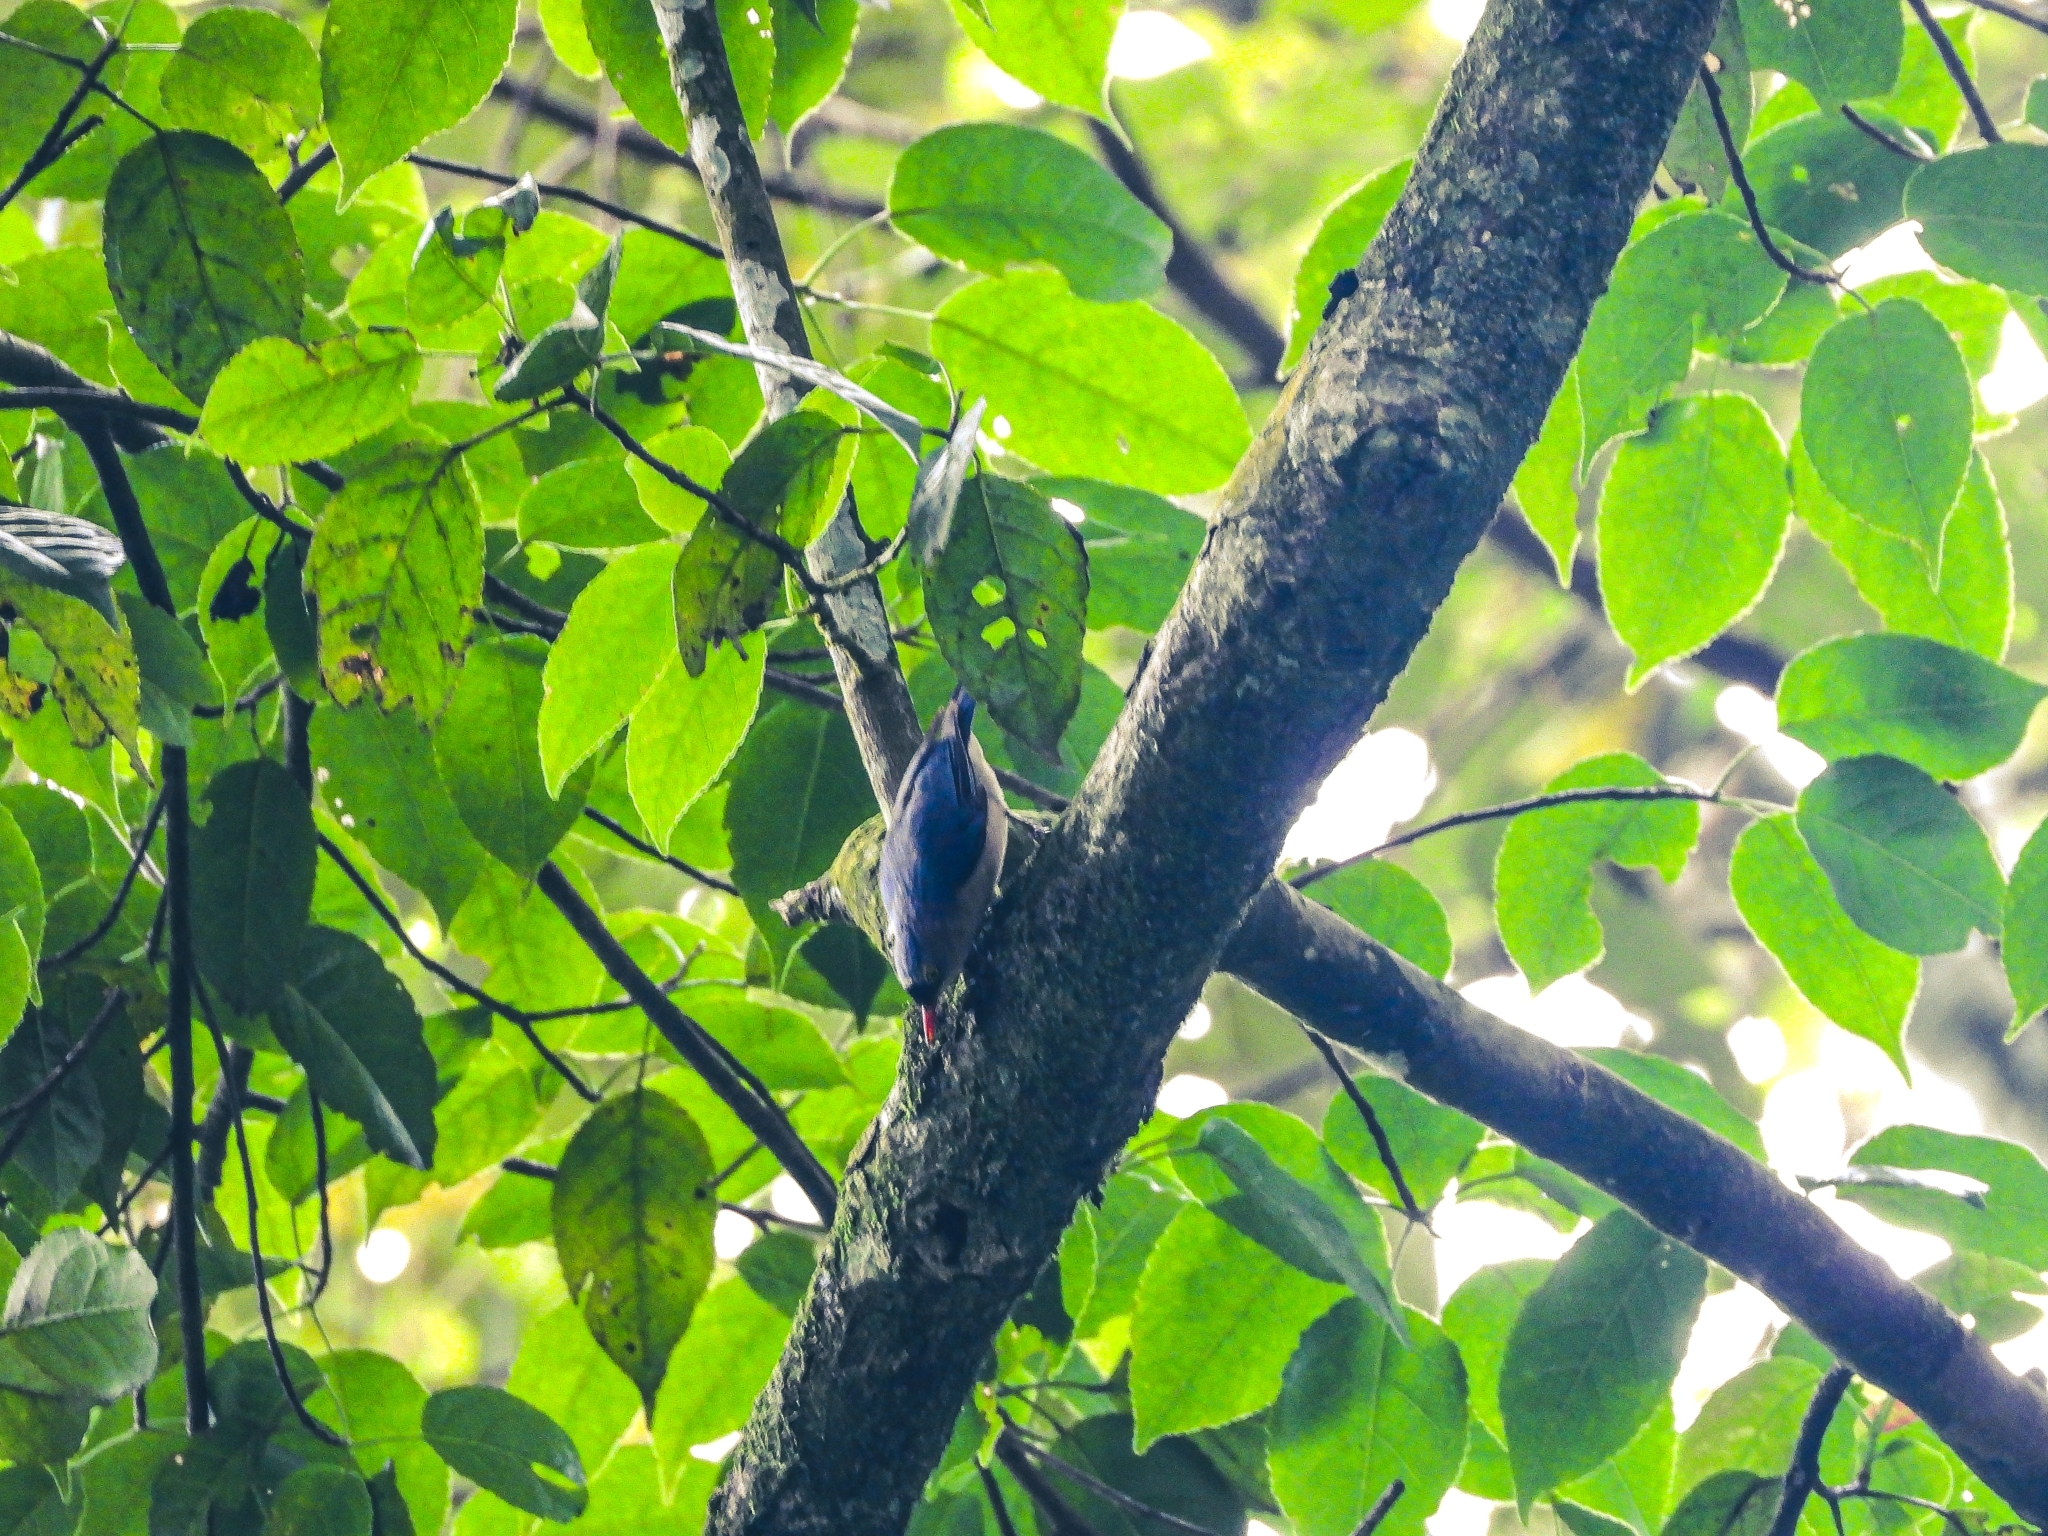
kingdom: Animalia
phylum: Chordata
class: Aves
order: Passeriformes
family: Sittidae
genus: Sitta
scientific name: Sitta frontalis
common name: Velvet-fronted nuthatch
